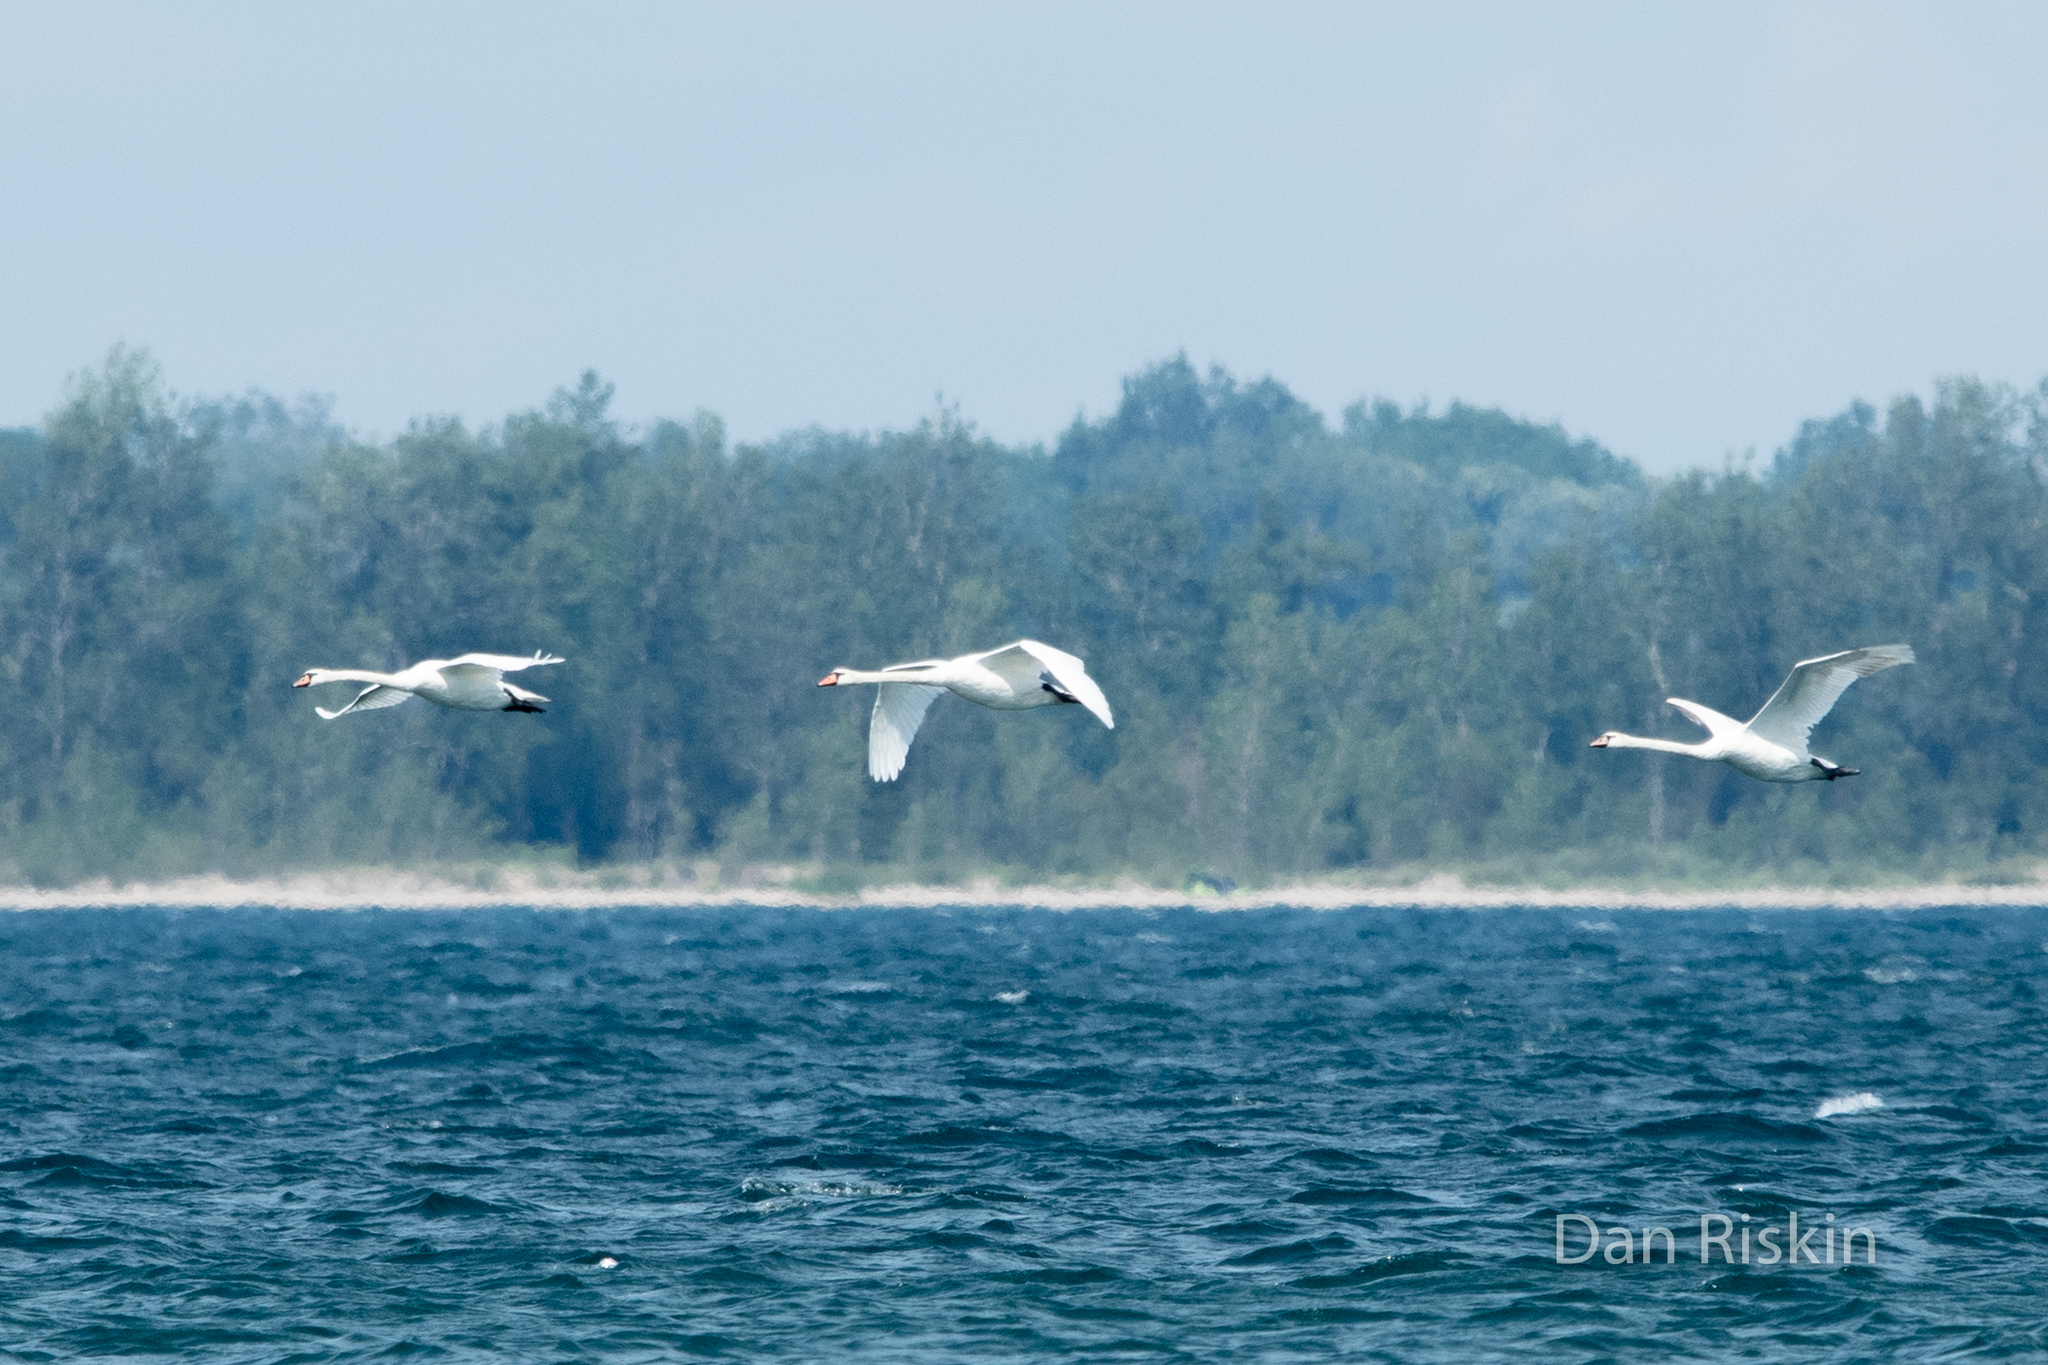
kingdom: Animalia
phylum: Chordata
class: Aves
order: Anseriformes
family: Anatidae
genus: Cygnus
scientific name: Cygnus olor
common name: Mute swan
